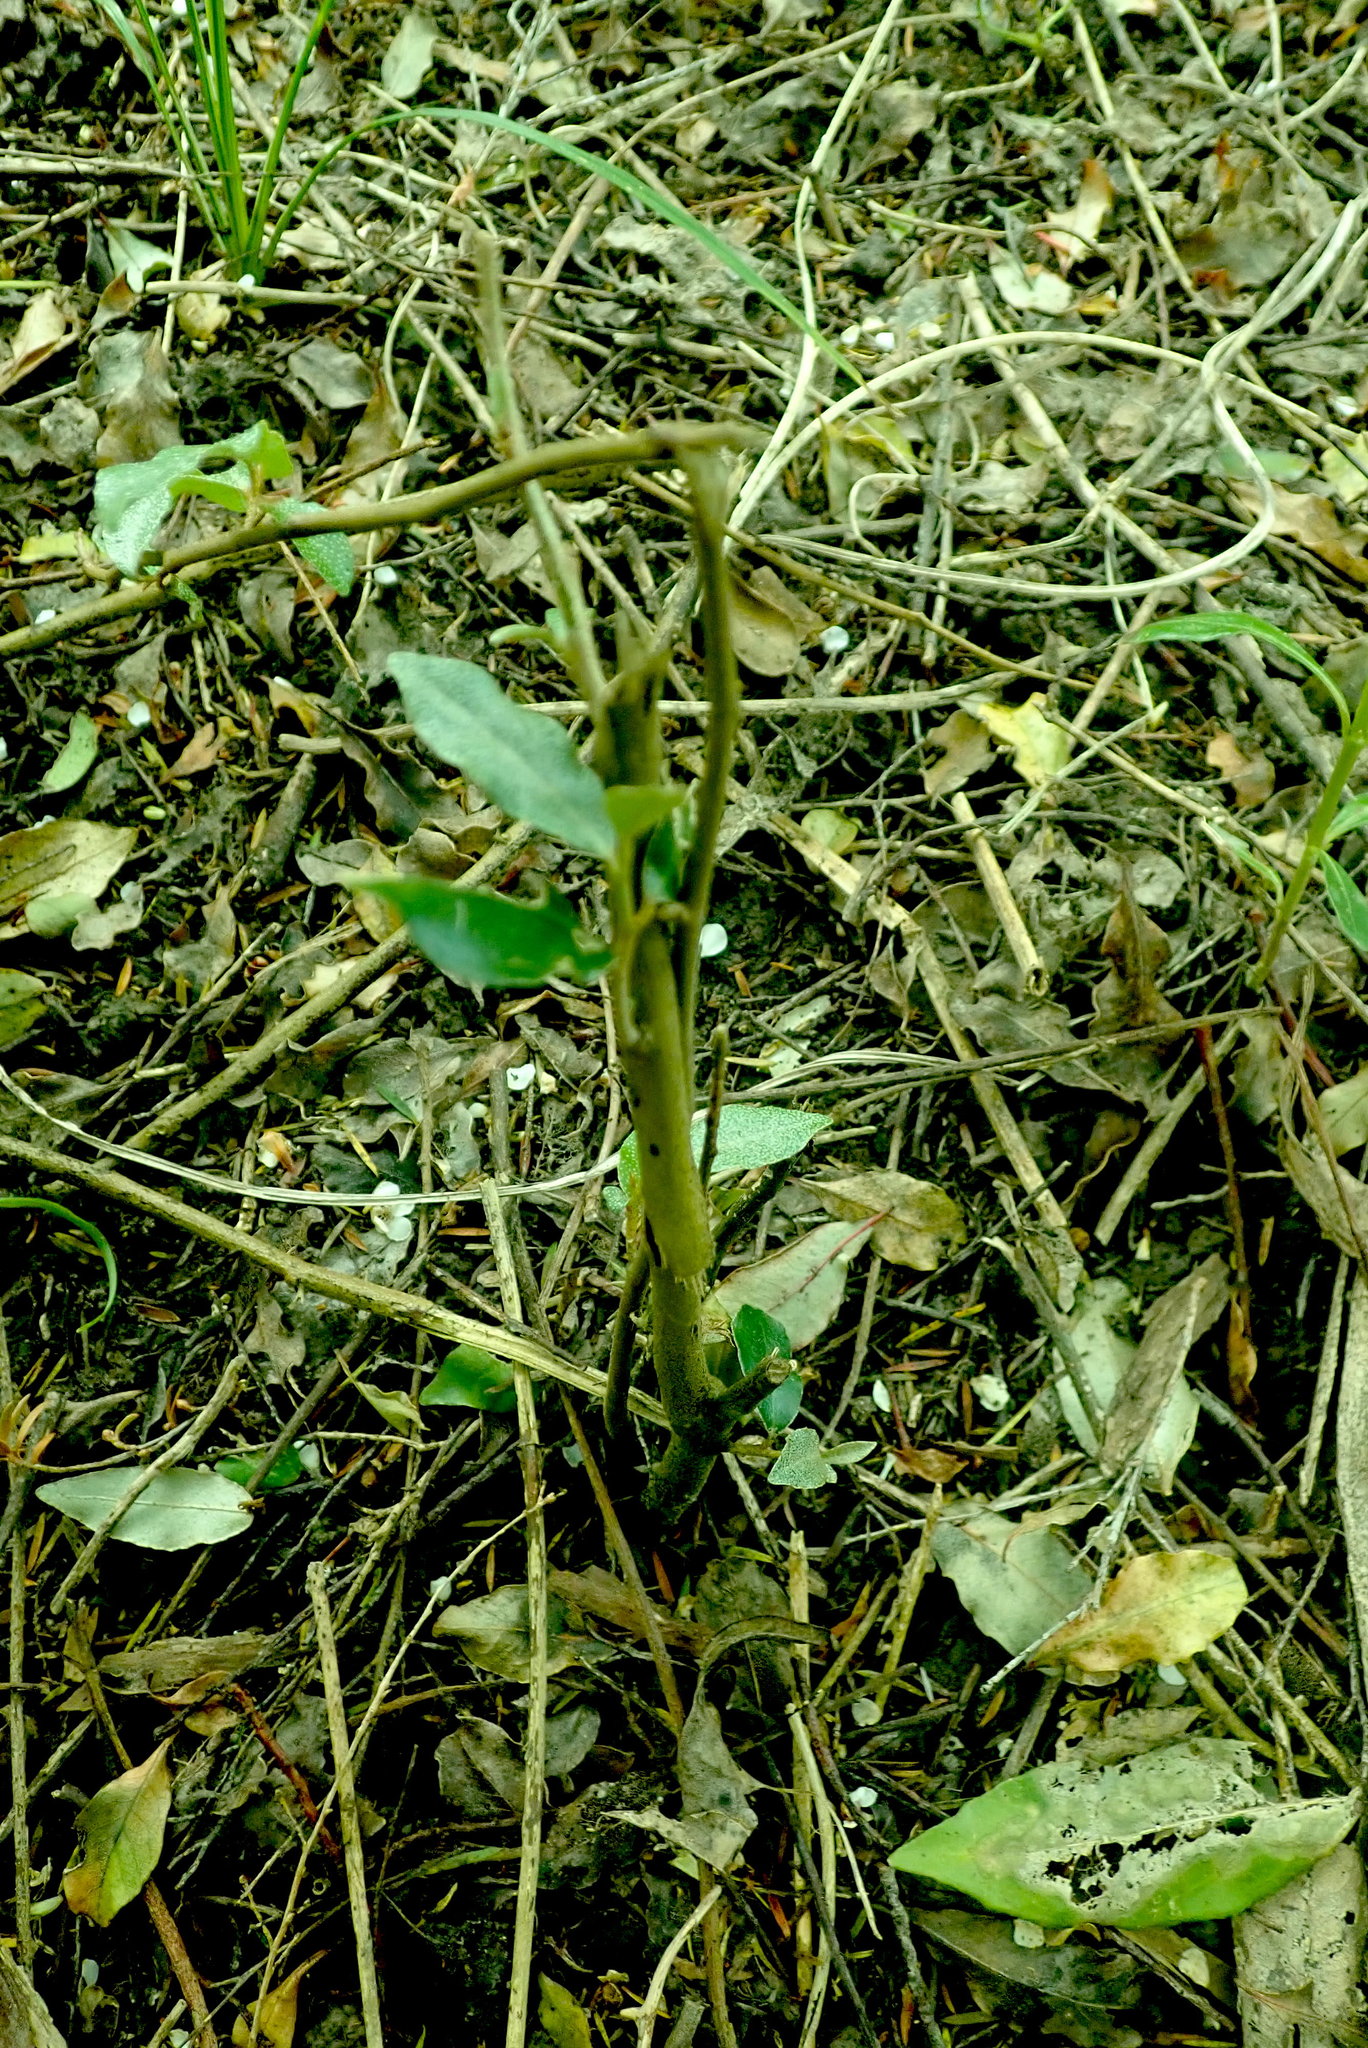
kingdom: Plantae
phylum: Tracheophyta
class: Magnoliopsida
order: Rosales
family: Elaeagnaceae
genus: Elaeagnus
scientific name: Elaeagnus reflexa
